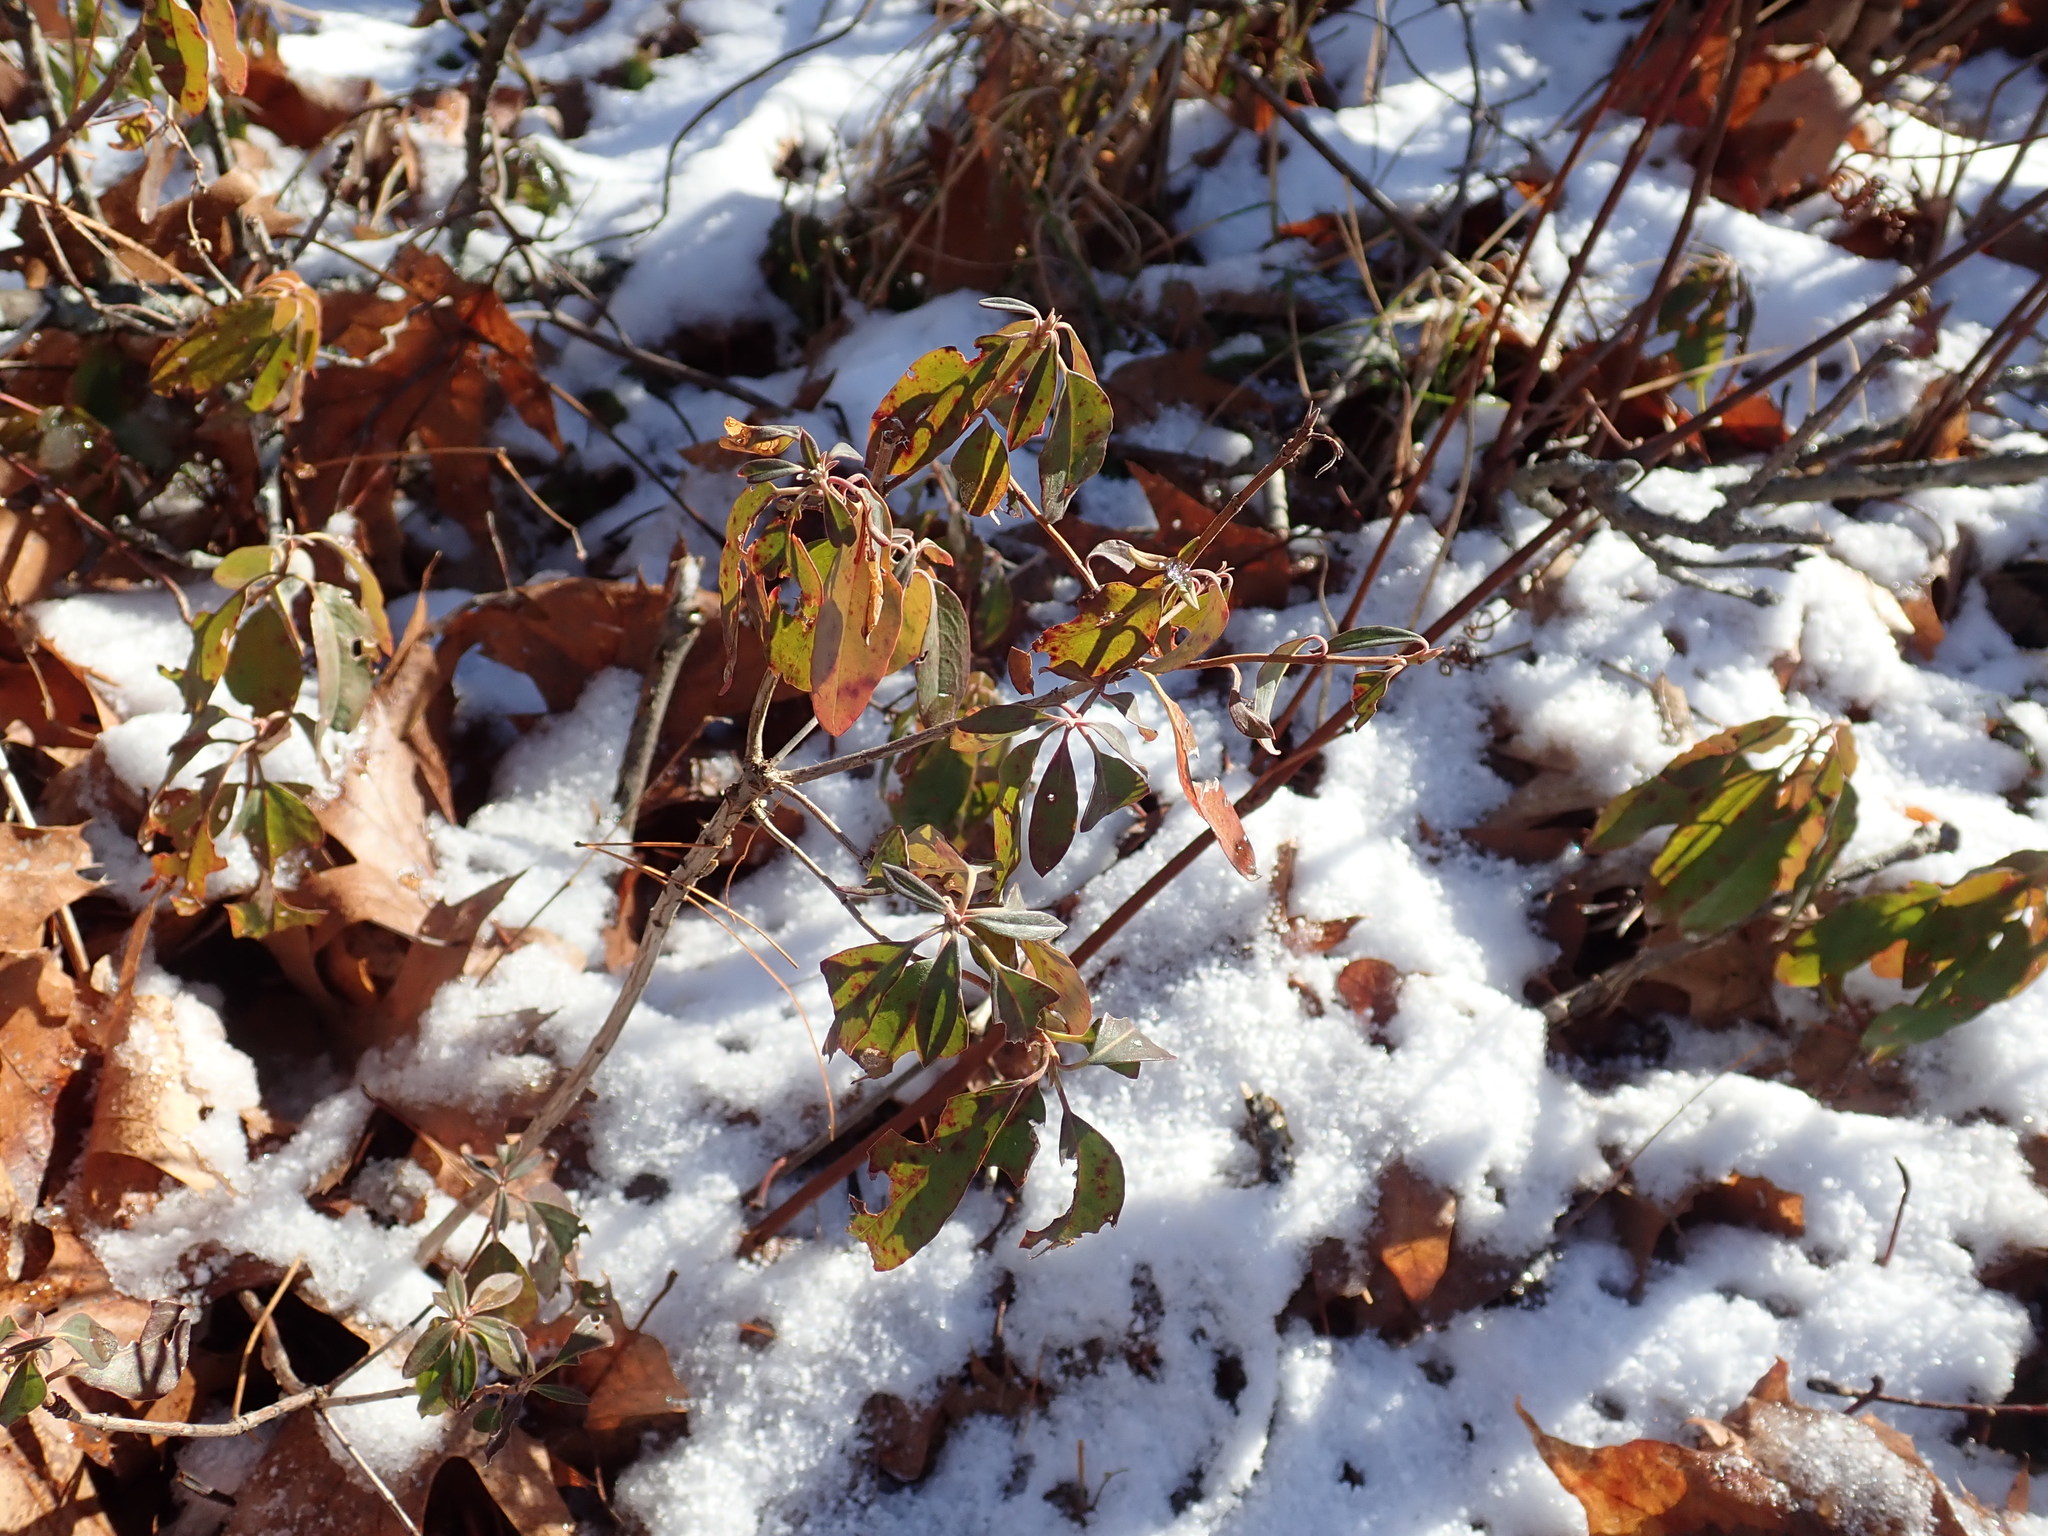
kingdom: Plantae
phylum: Tracheophyta
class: Magnoliopsida
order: Ericales
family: Ericaceae
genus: Kalmia
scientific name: Kalmia angustifolia
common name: Sheep-laurel
